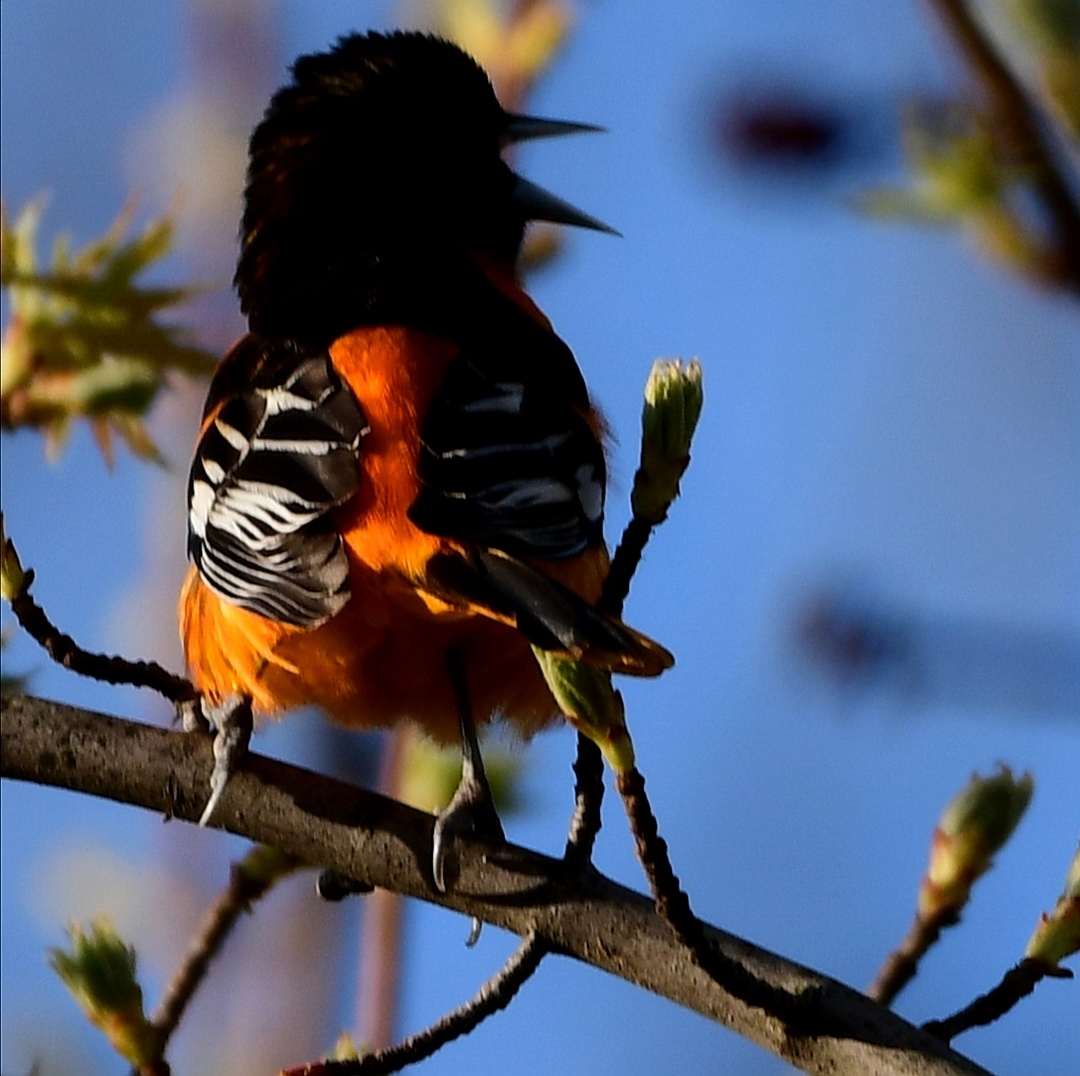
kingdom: Animalia
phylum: Chordata
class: Aves
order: Passeriformes
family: Icteridae
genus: Icterus
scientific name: Icterus galbula
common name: Baltimore oriole
